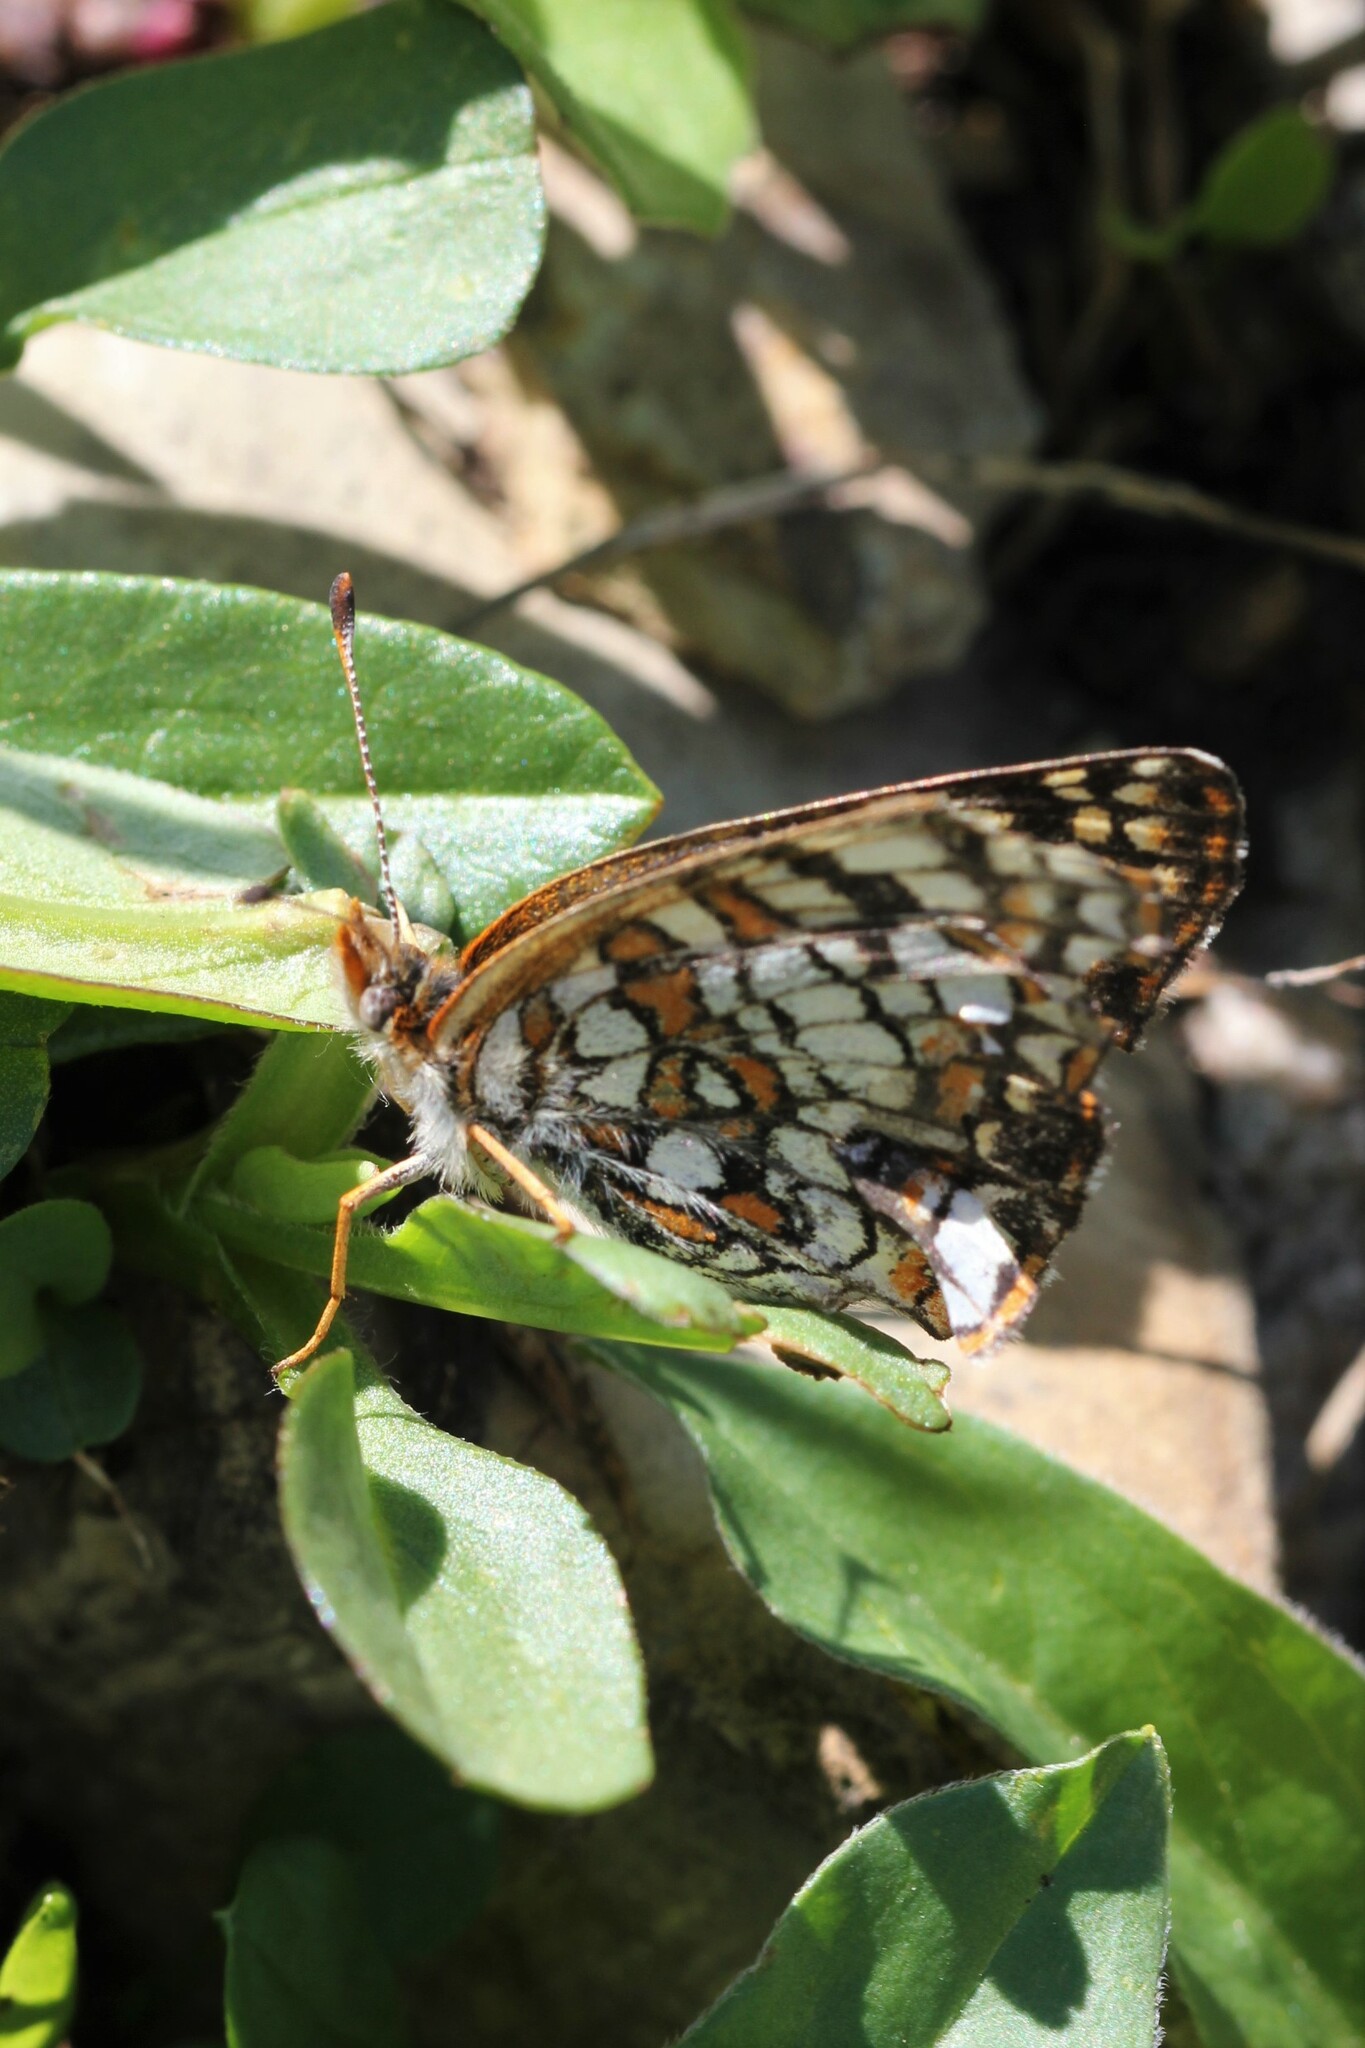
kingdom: Animalia
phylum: Arthropoda
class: Insecta
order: Lepidoptera
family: Nymphalidae
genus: Chlosyne
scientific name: Chlosyne damoetas
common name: Rockslide checkerspot
